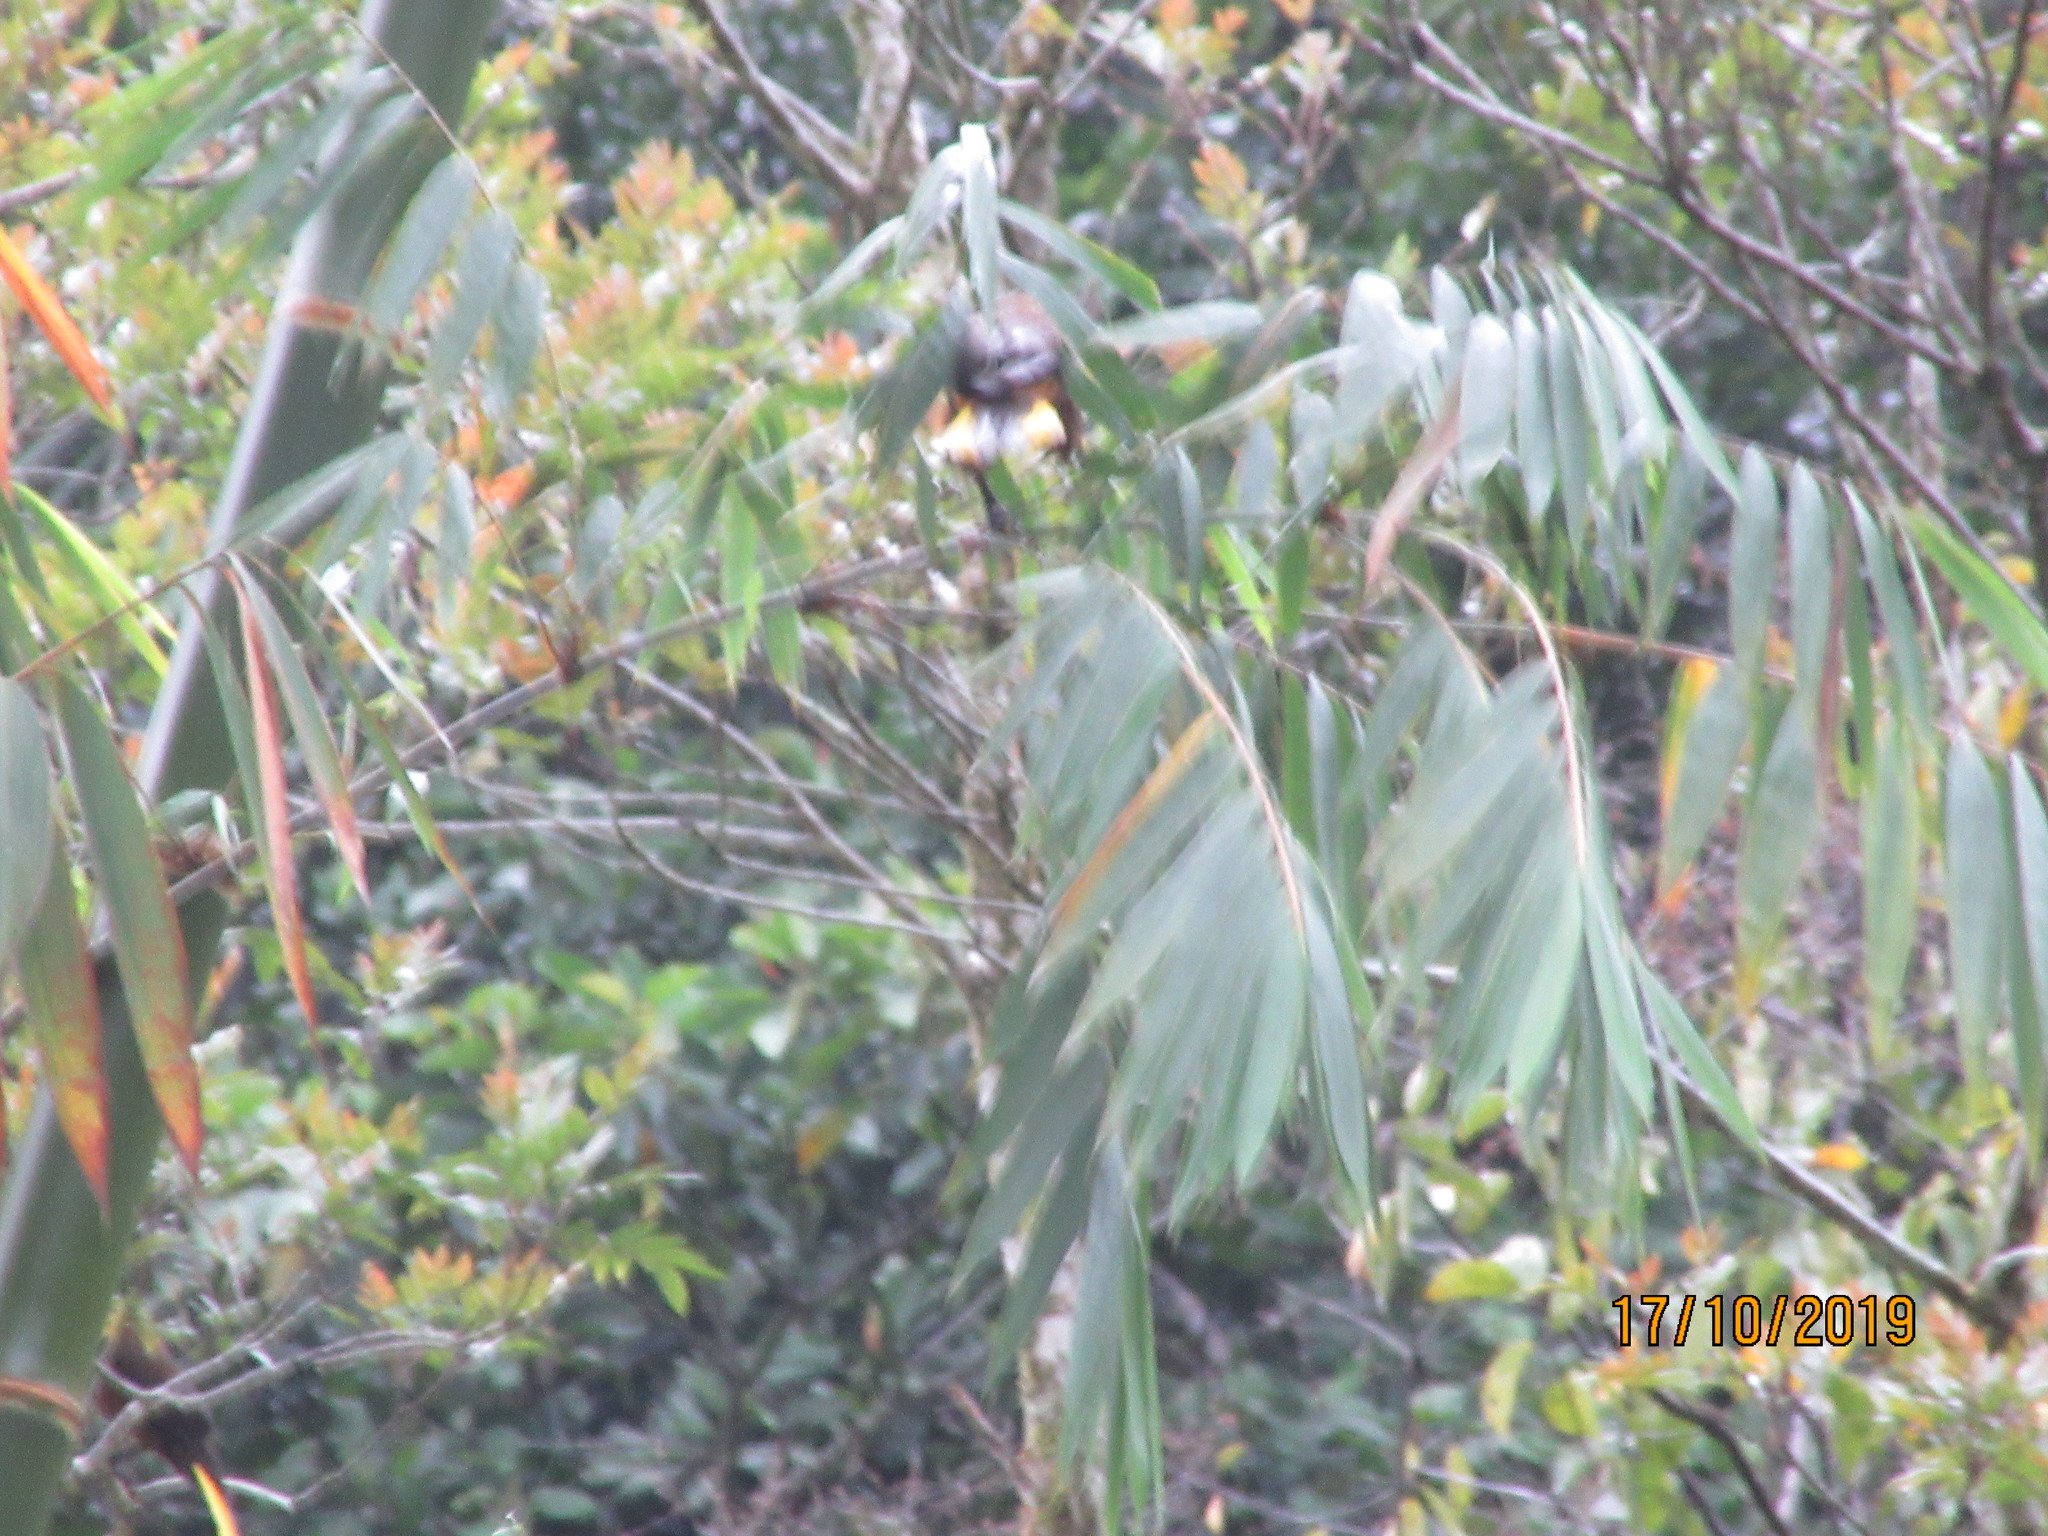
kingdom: Animalia
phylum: Chordata
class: Aves
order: Passeriformes
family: Icteridae
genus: Psarocolius
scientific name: Psarocolius angustifrons
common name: Russet-backed oropendola
